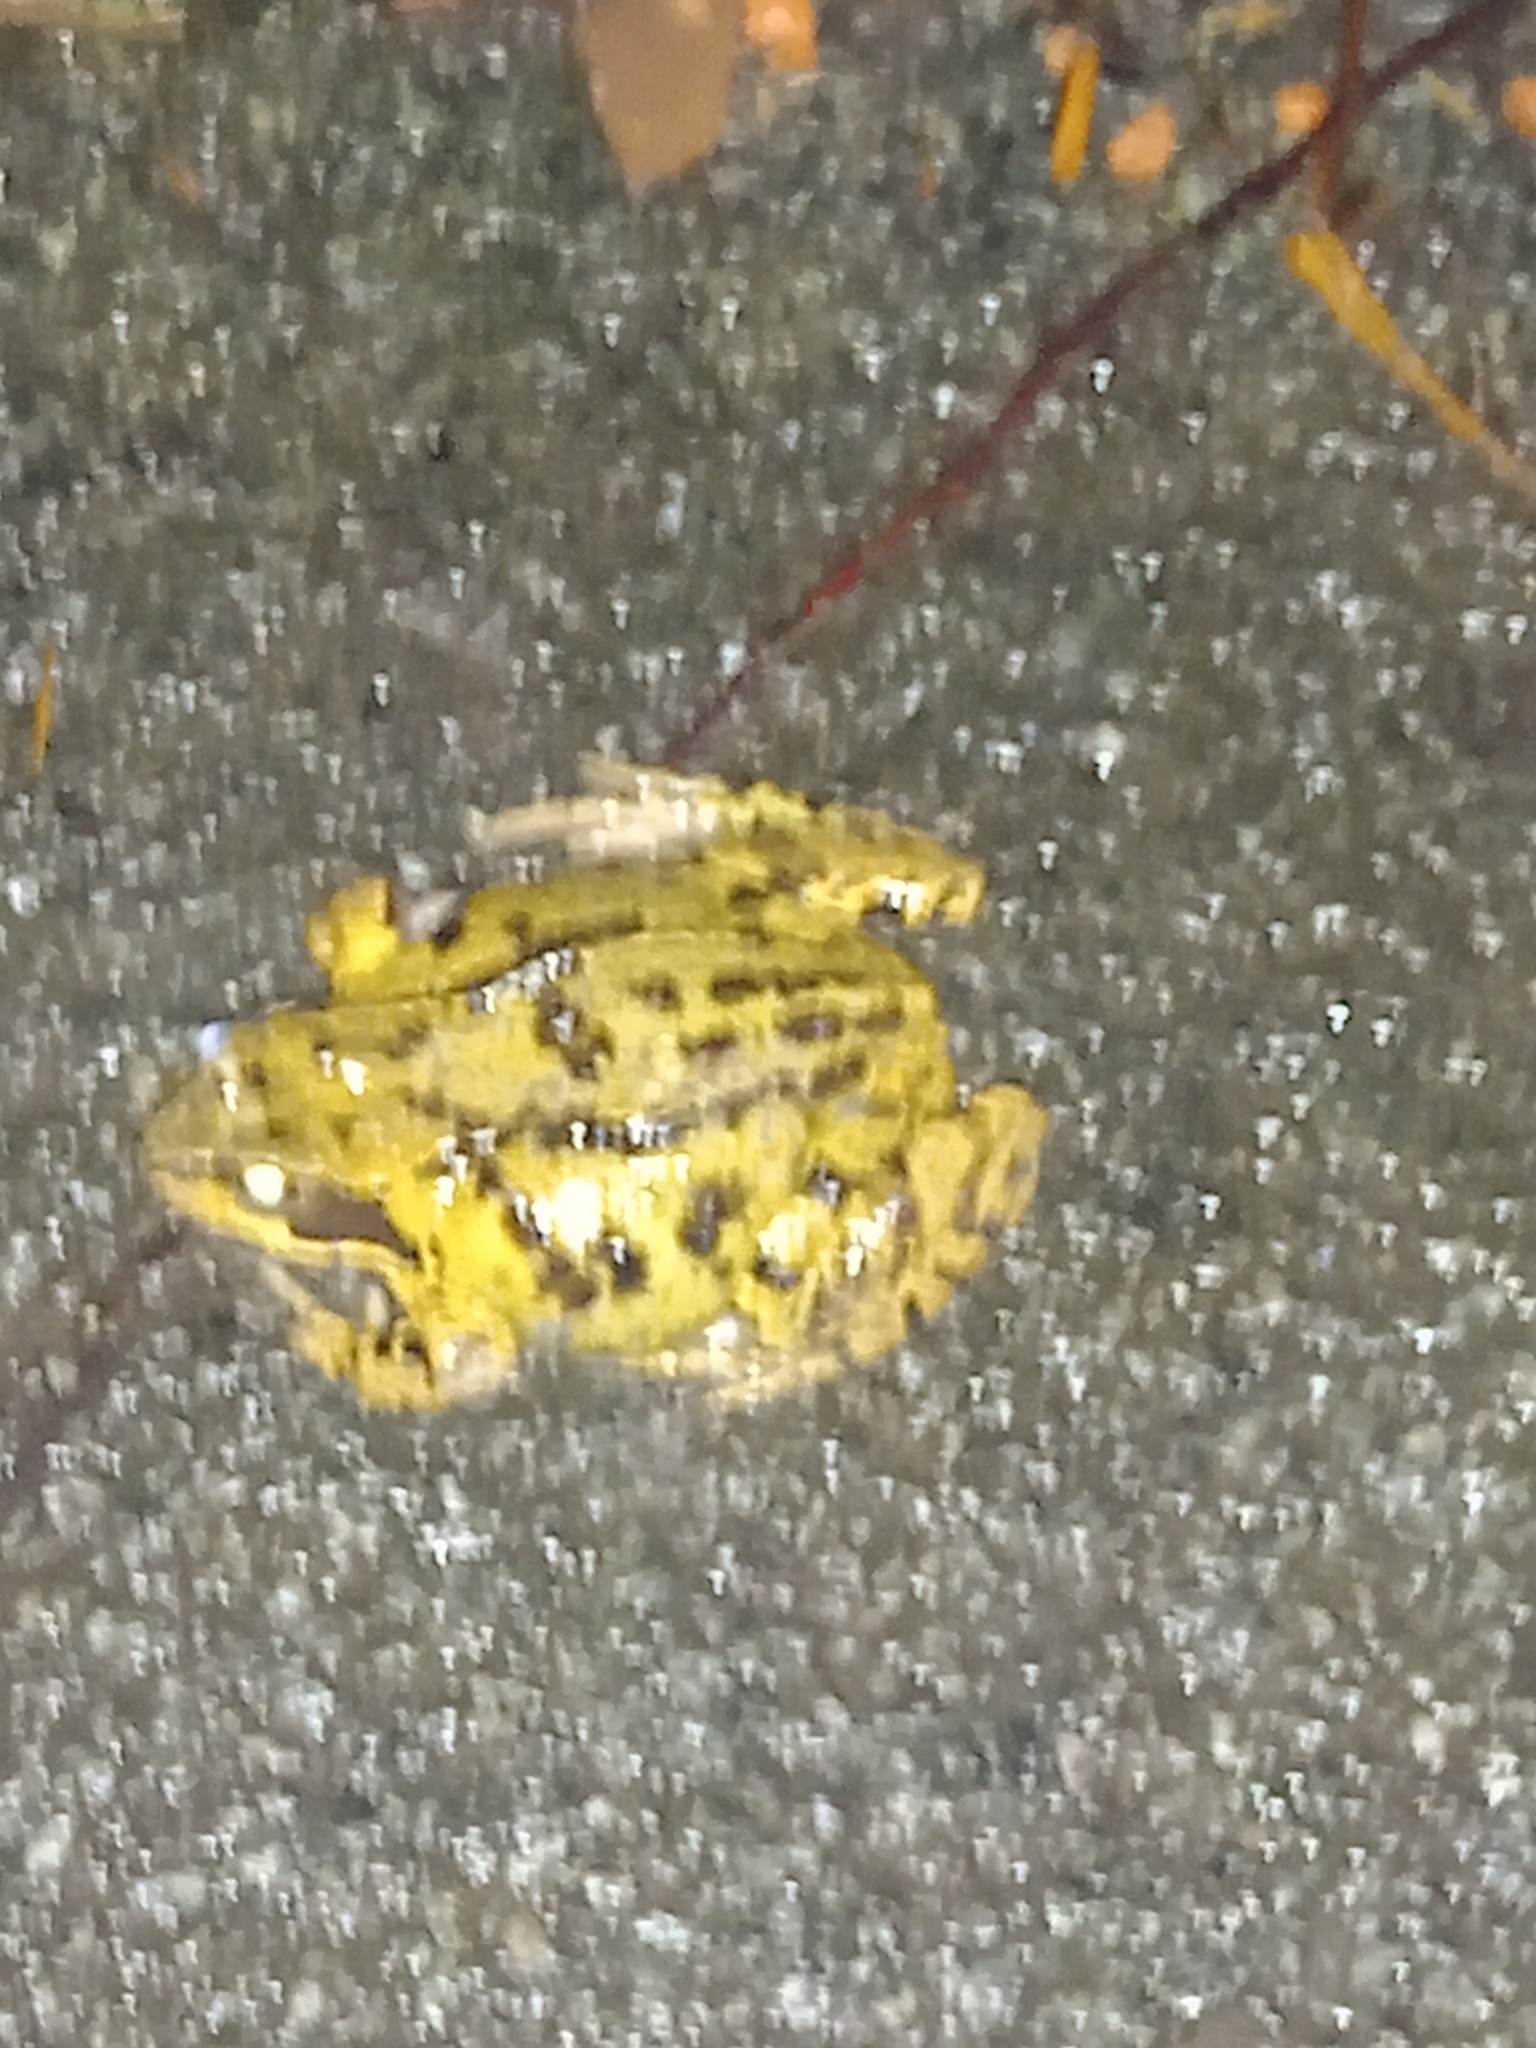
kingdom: Animalia
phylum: Chordata
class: Amphibia
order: Anura
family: Ranidae
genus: Rana
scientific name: Rana temporaria
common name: Common frog
